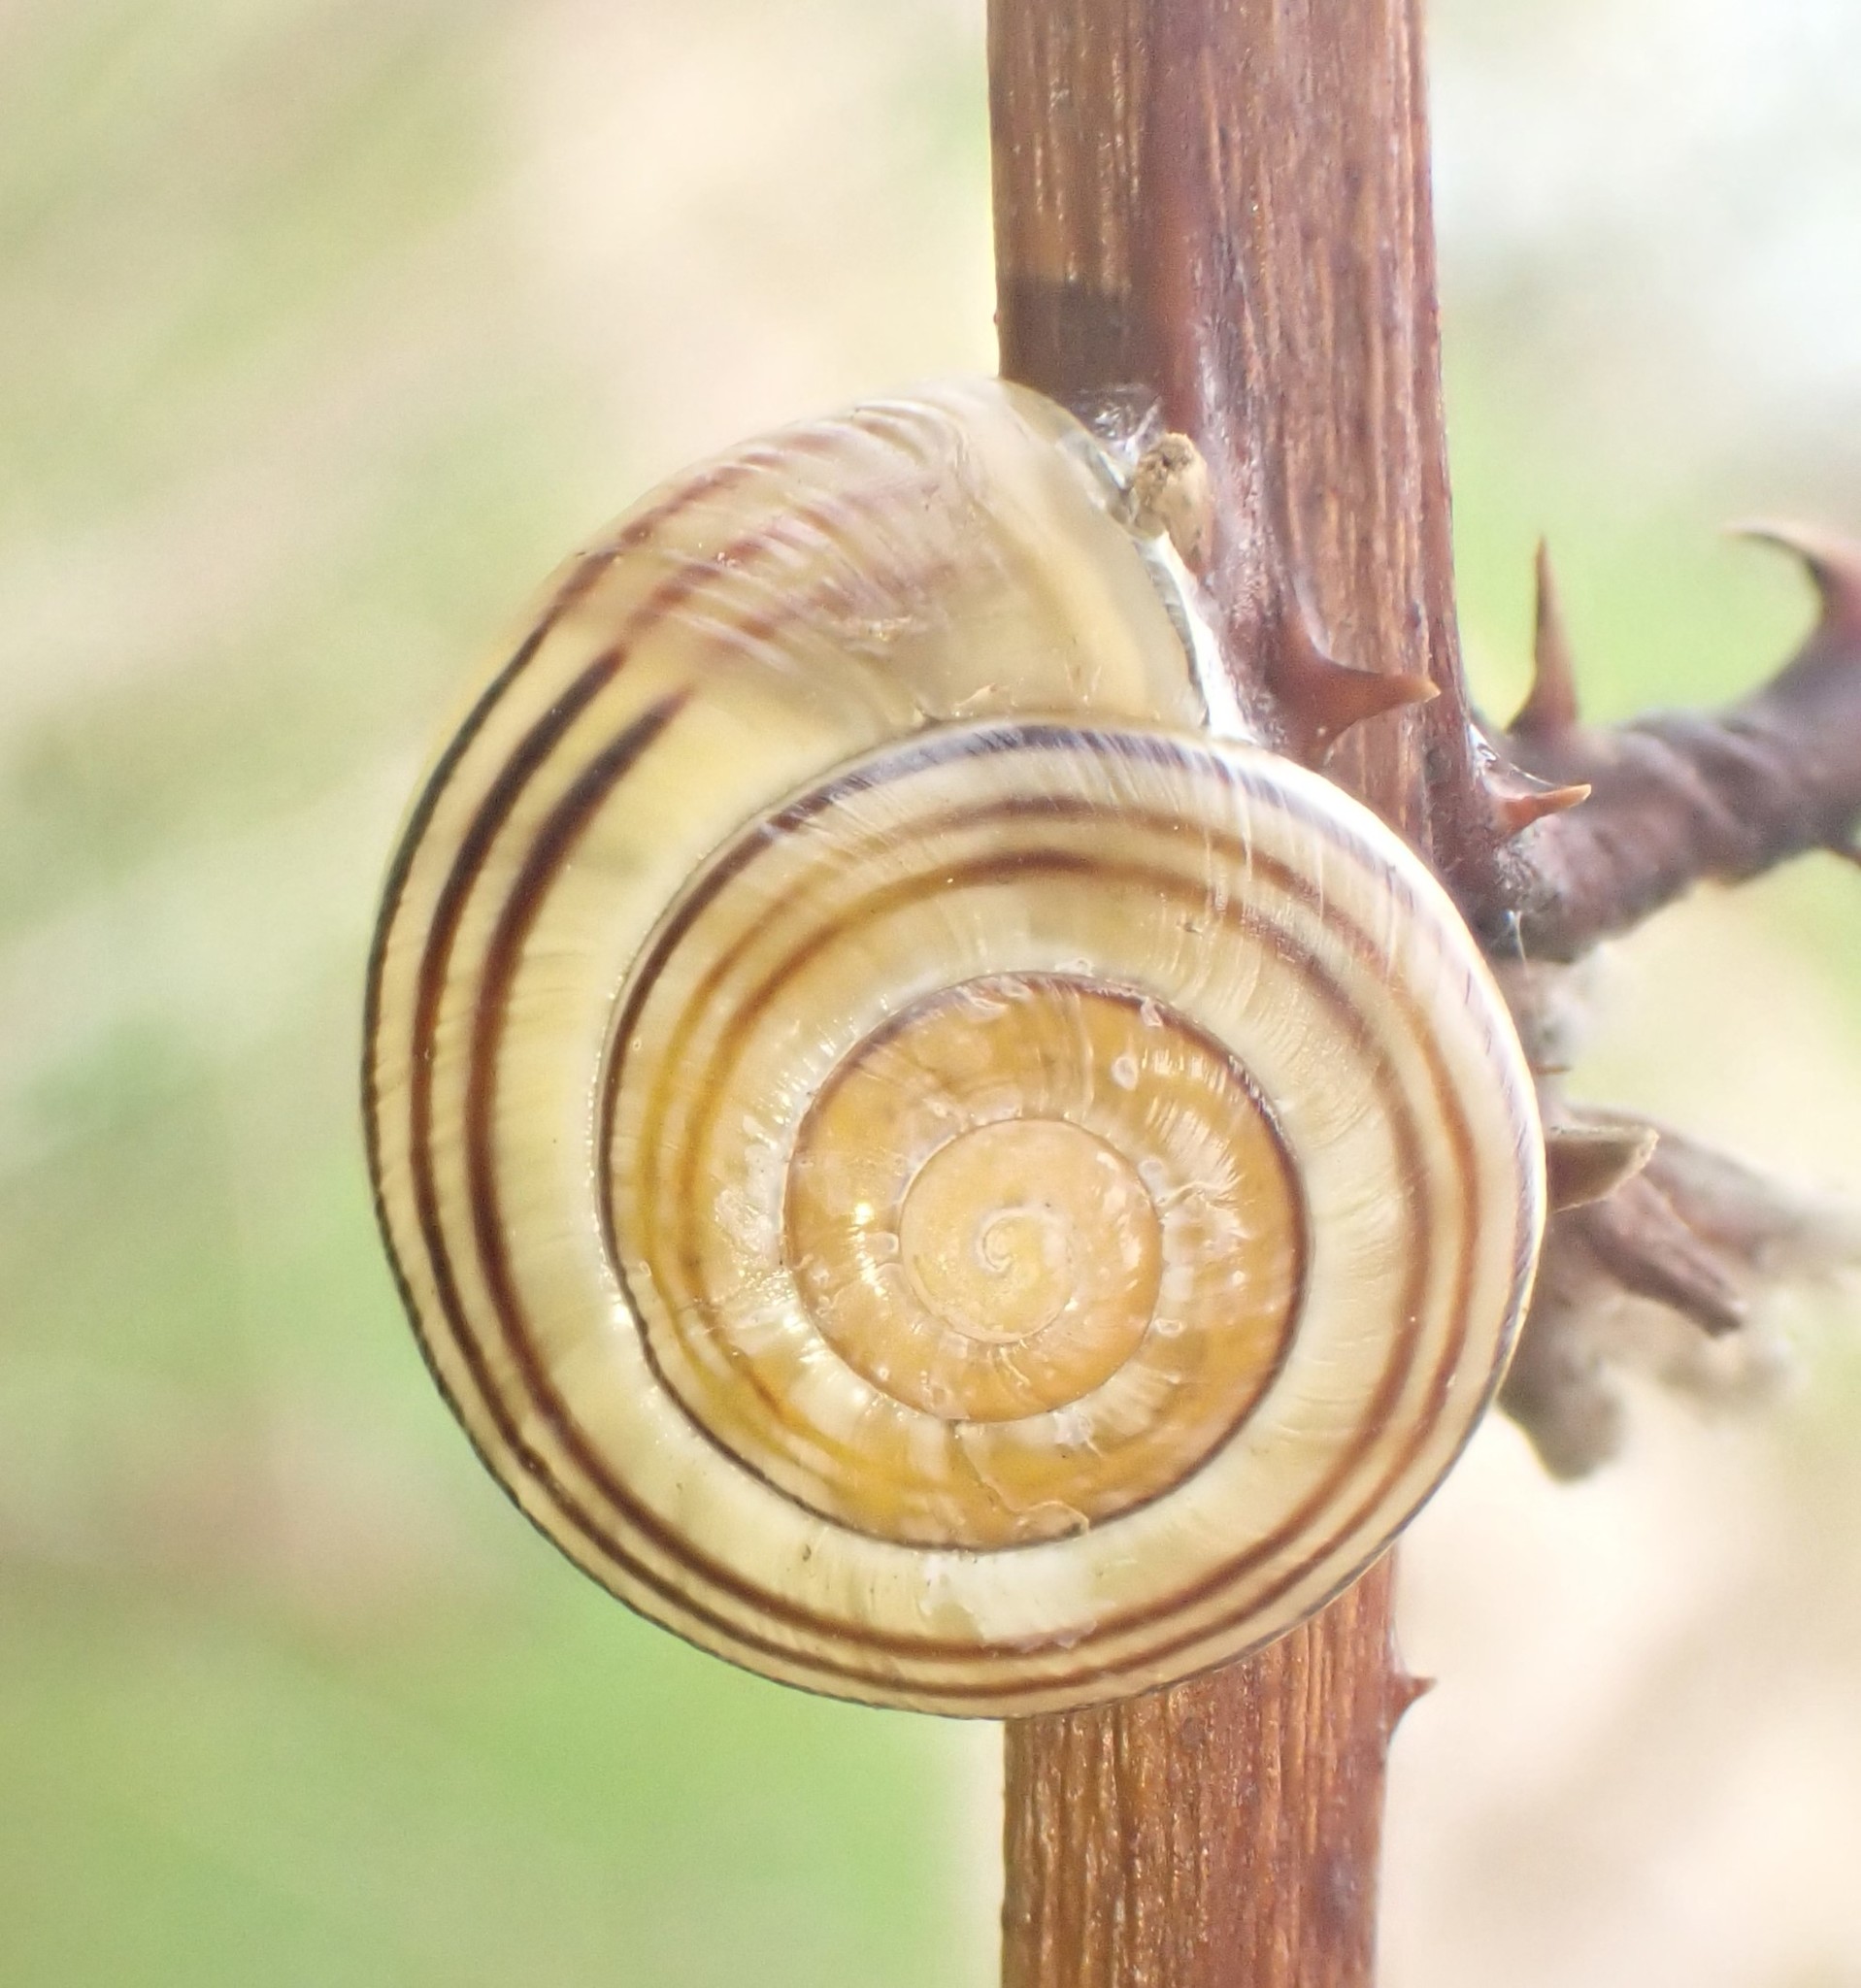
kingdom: Animalia
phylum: Mollusca
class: Gastropoda
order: Stylommatophora
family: Helicidae
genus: Cepaea
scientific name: Cepaea
